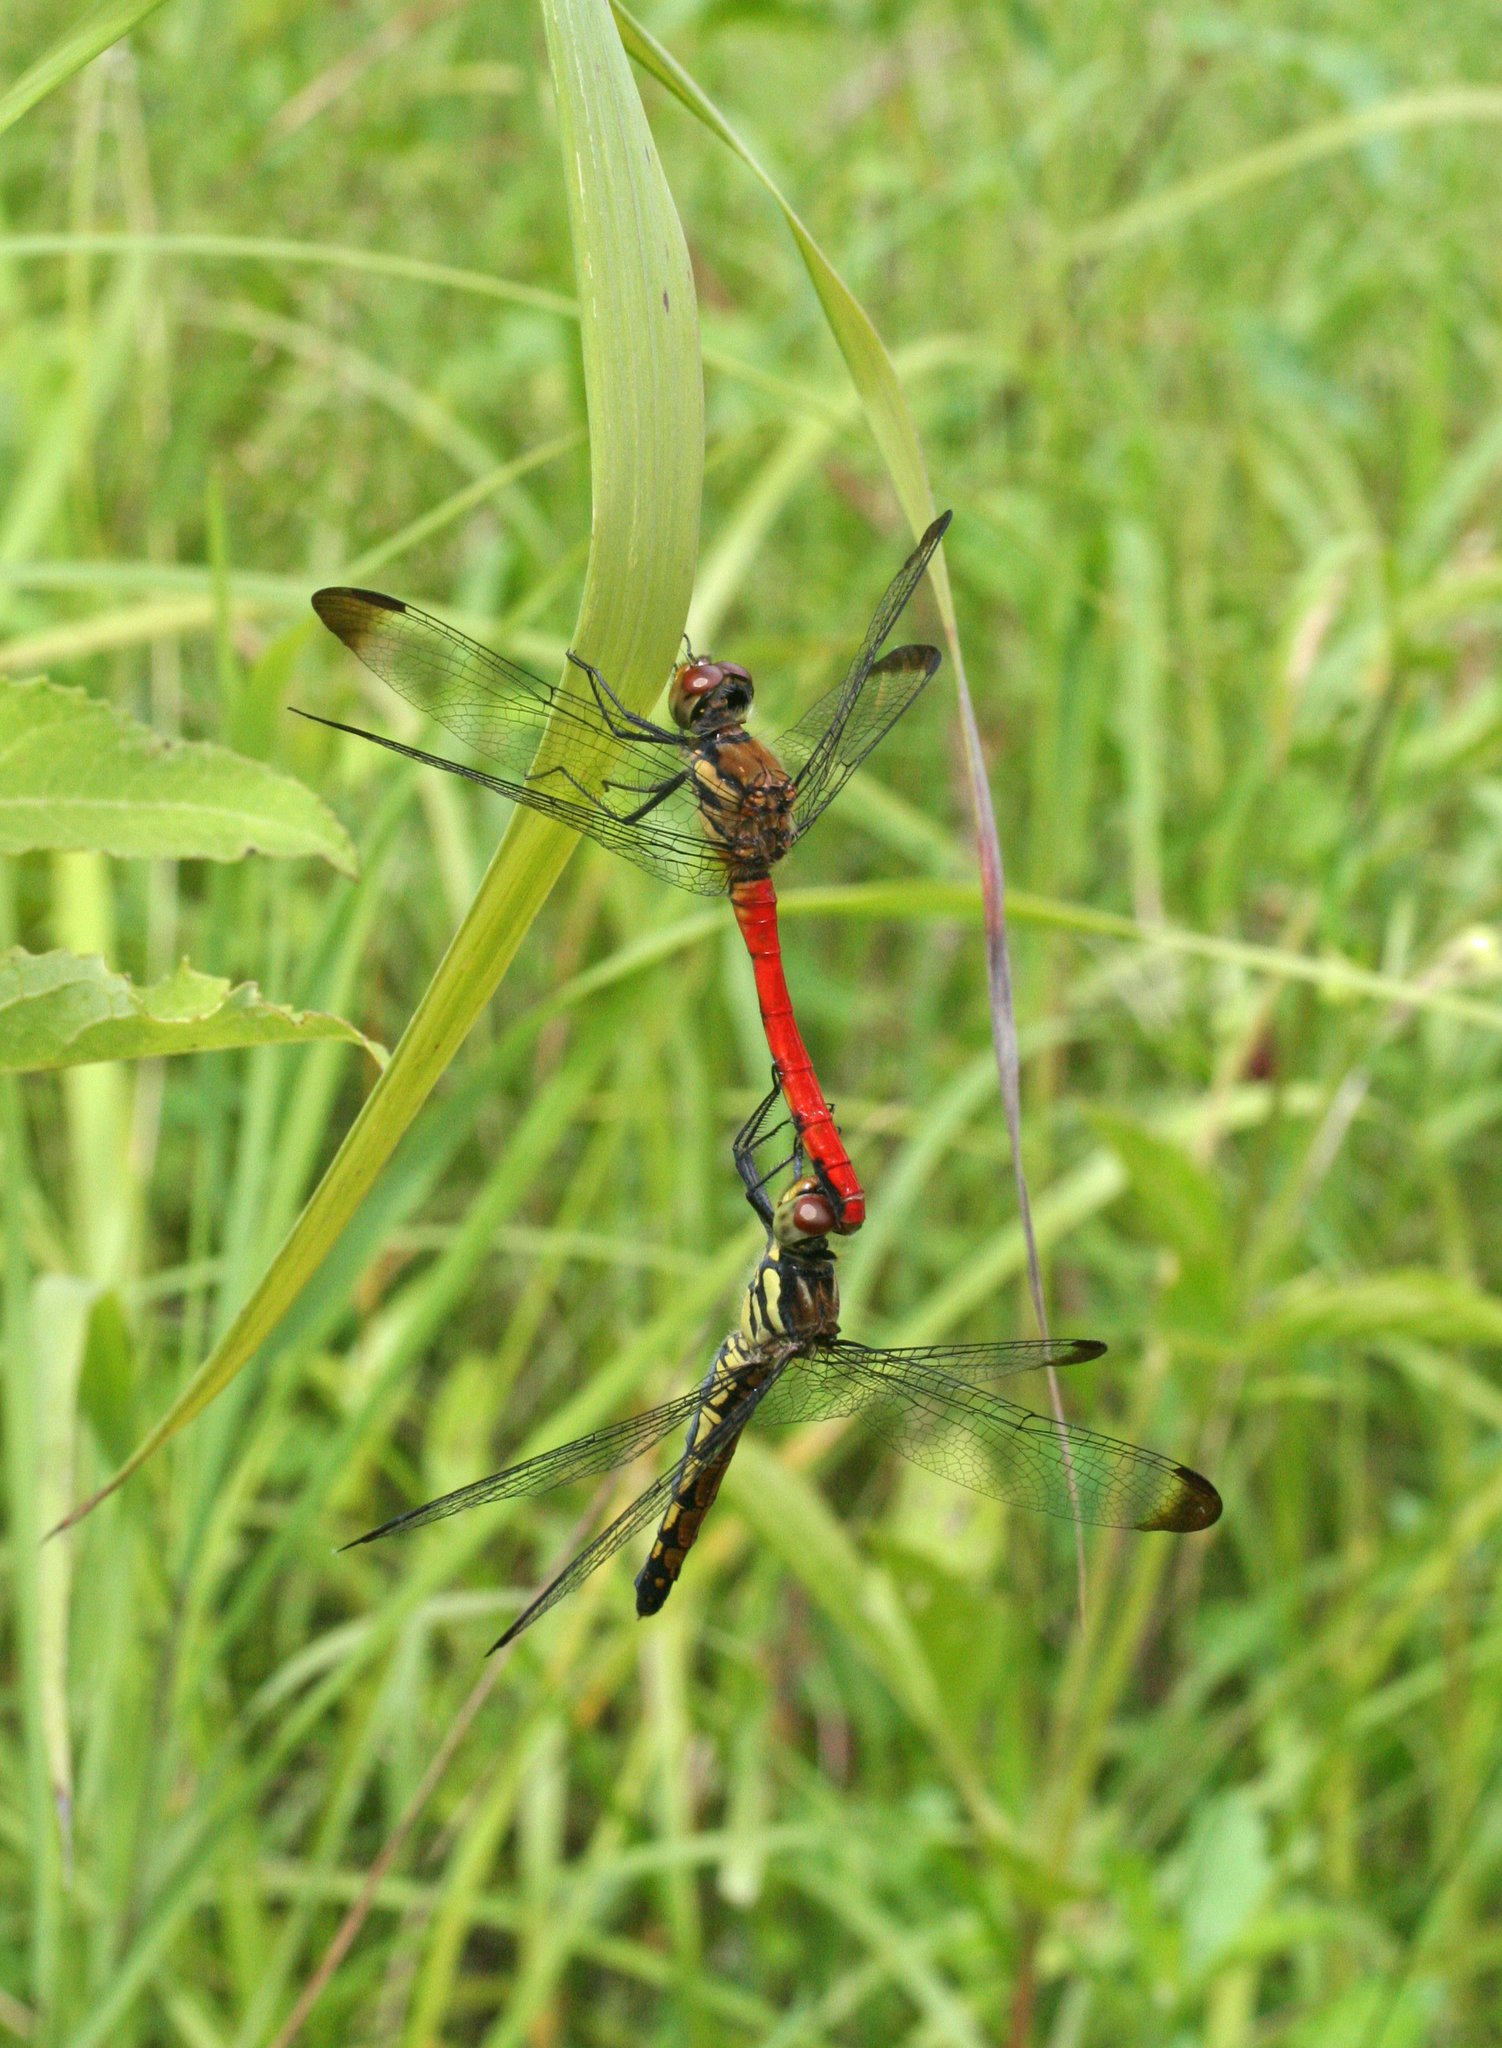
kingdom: Animalia
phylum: Arthropoda
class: Insecta
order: Odonata
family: Libellulidae
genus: Sympetrum
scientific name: Sympetrum risi
